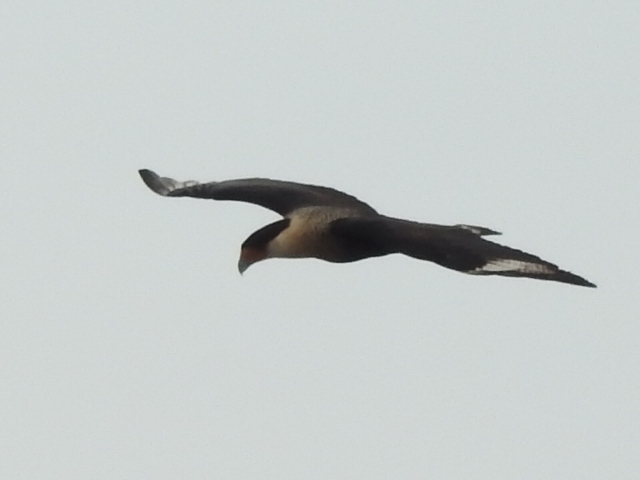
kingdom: Animalia
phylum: Chordata
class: Aves
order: Falconiformes
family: Falconidae
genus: Caracara
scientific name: Caracara plancus
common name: Southern caracara
